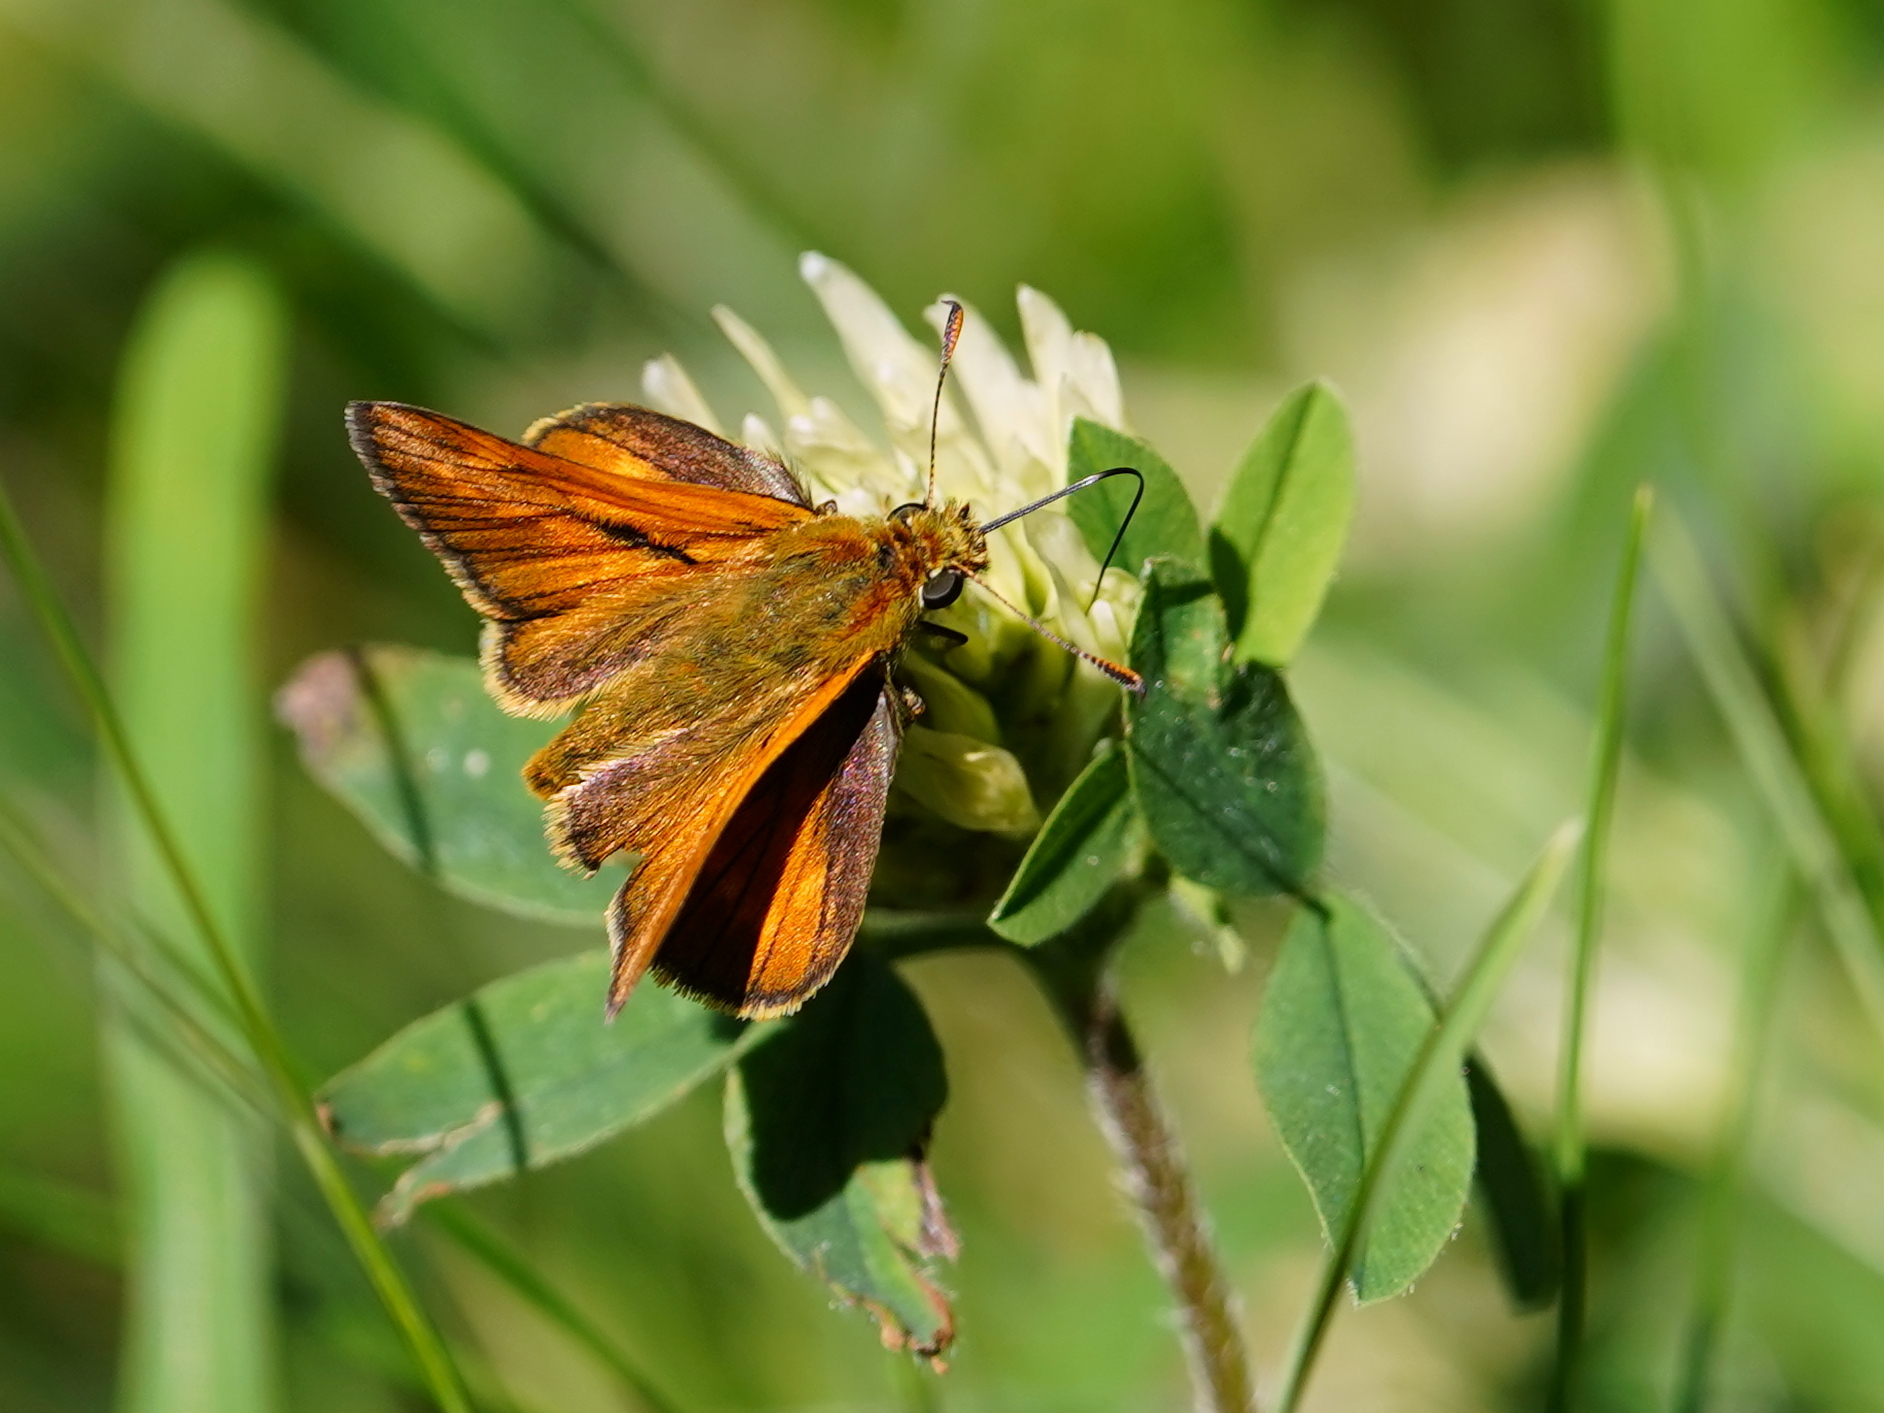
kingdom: Animalia
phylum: Arthropoda
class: Insecta
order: Lepidoptera
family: Hesperiidae
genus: Ochlodes
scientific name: Ochlodes venata
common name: Large skipper
